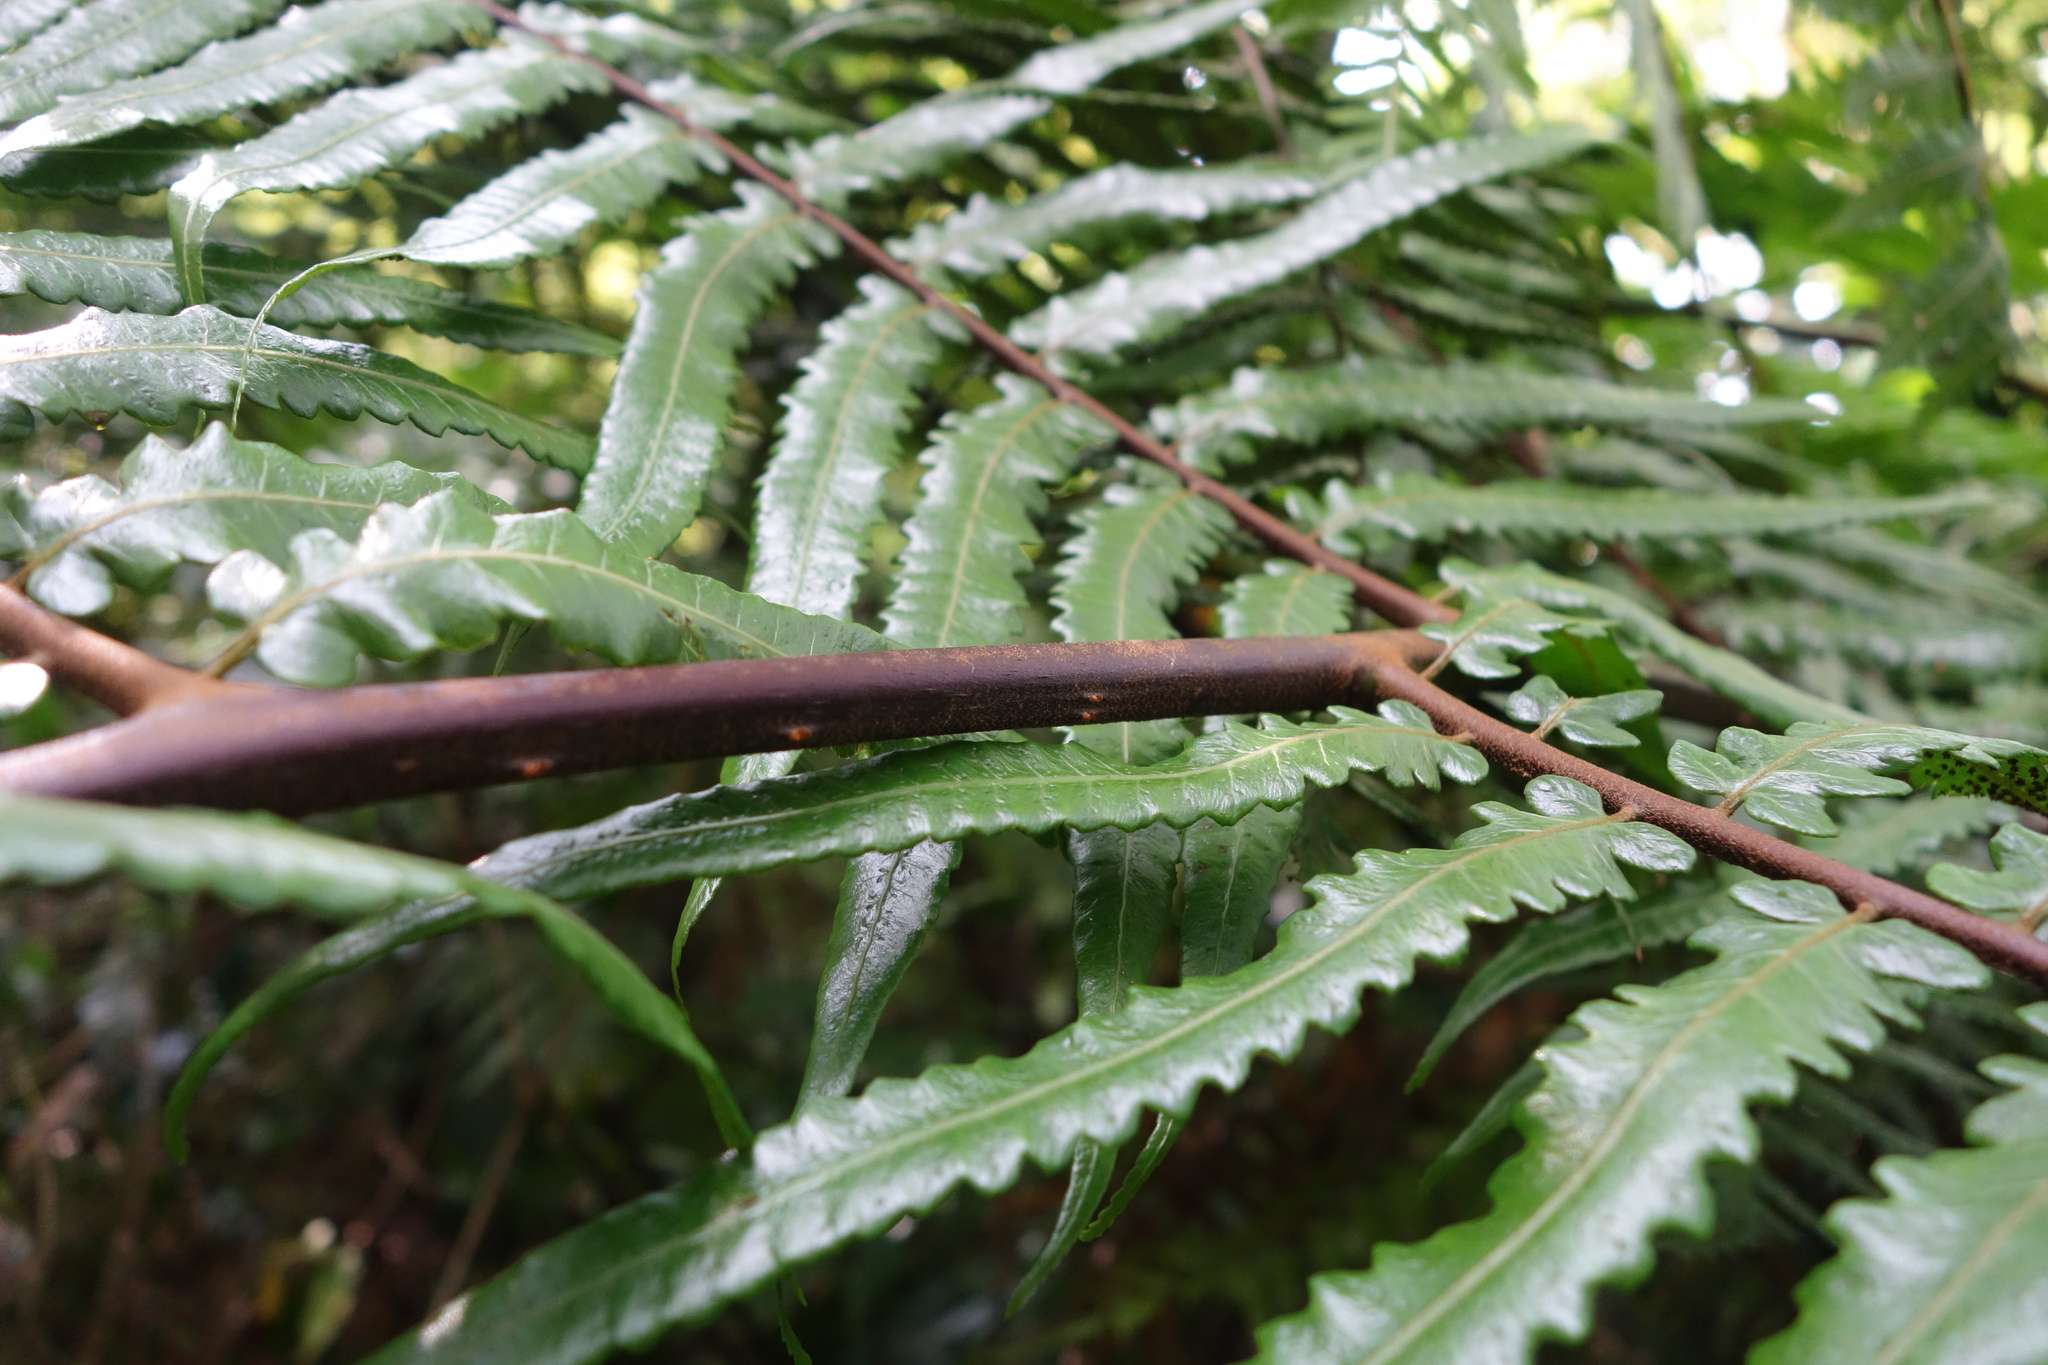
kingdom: Plantae
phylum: Tracheophyta
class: Polypodiopsida
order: Cyatheales
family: Cyatheaceae
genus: Gymnosphaera
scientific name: Gymnosphaera podophylla
